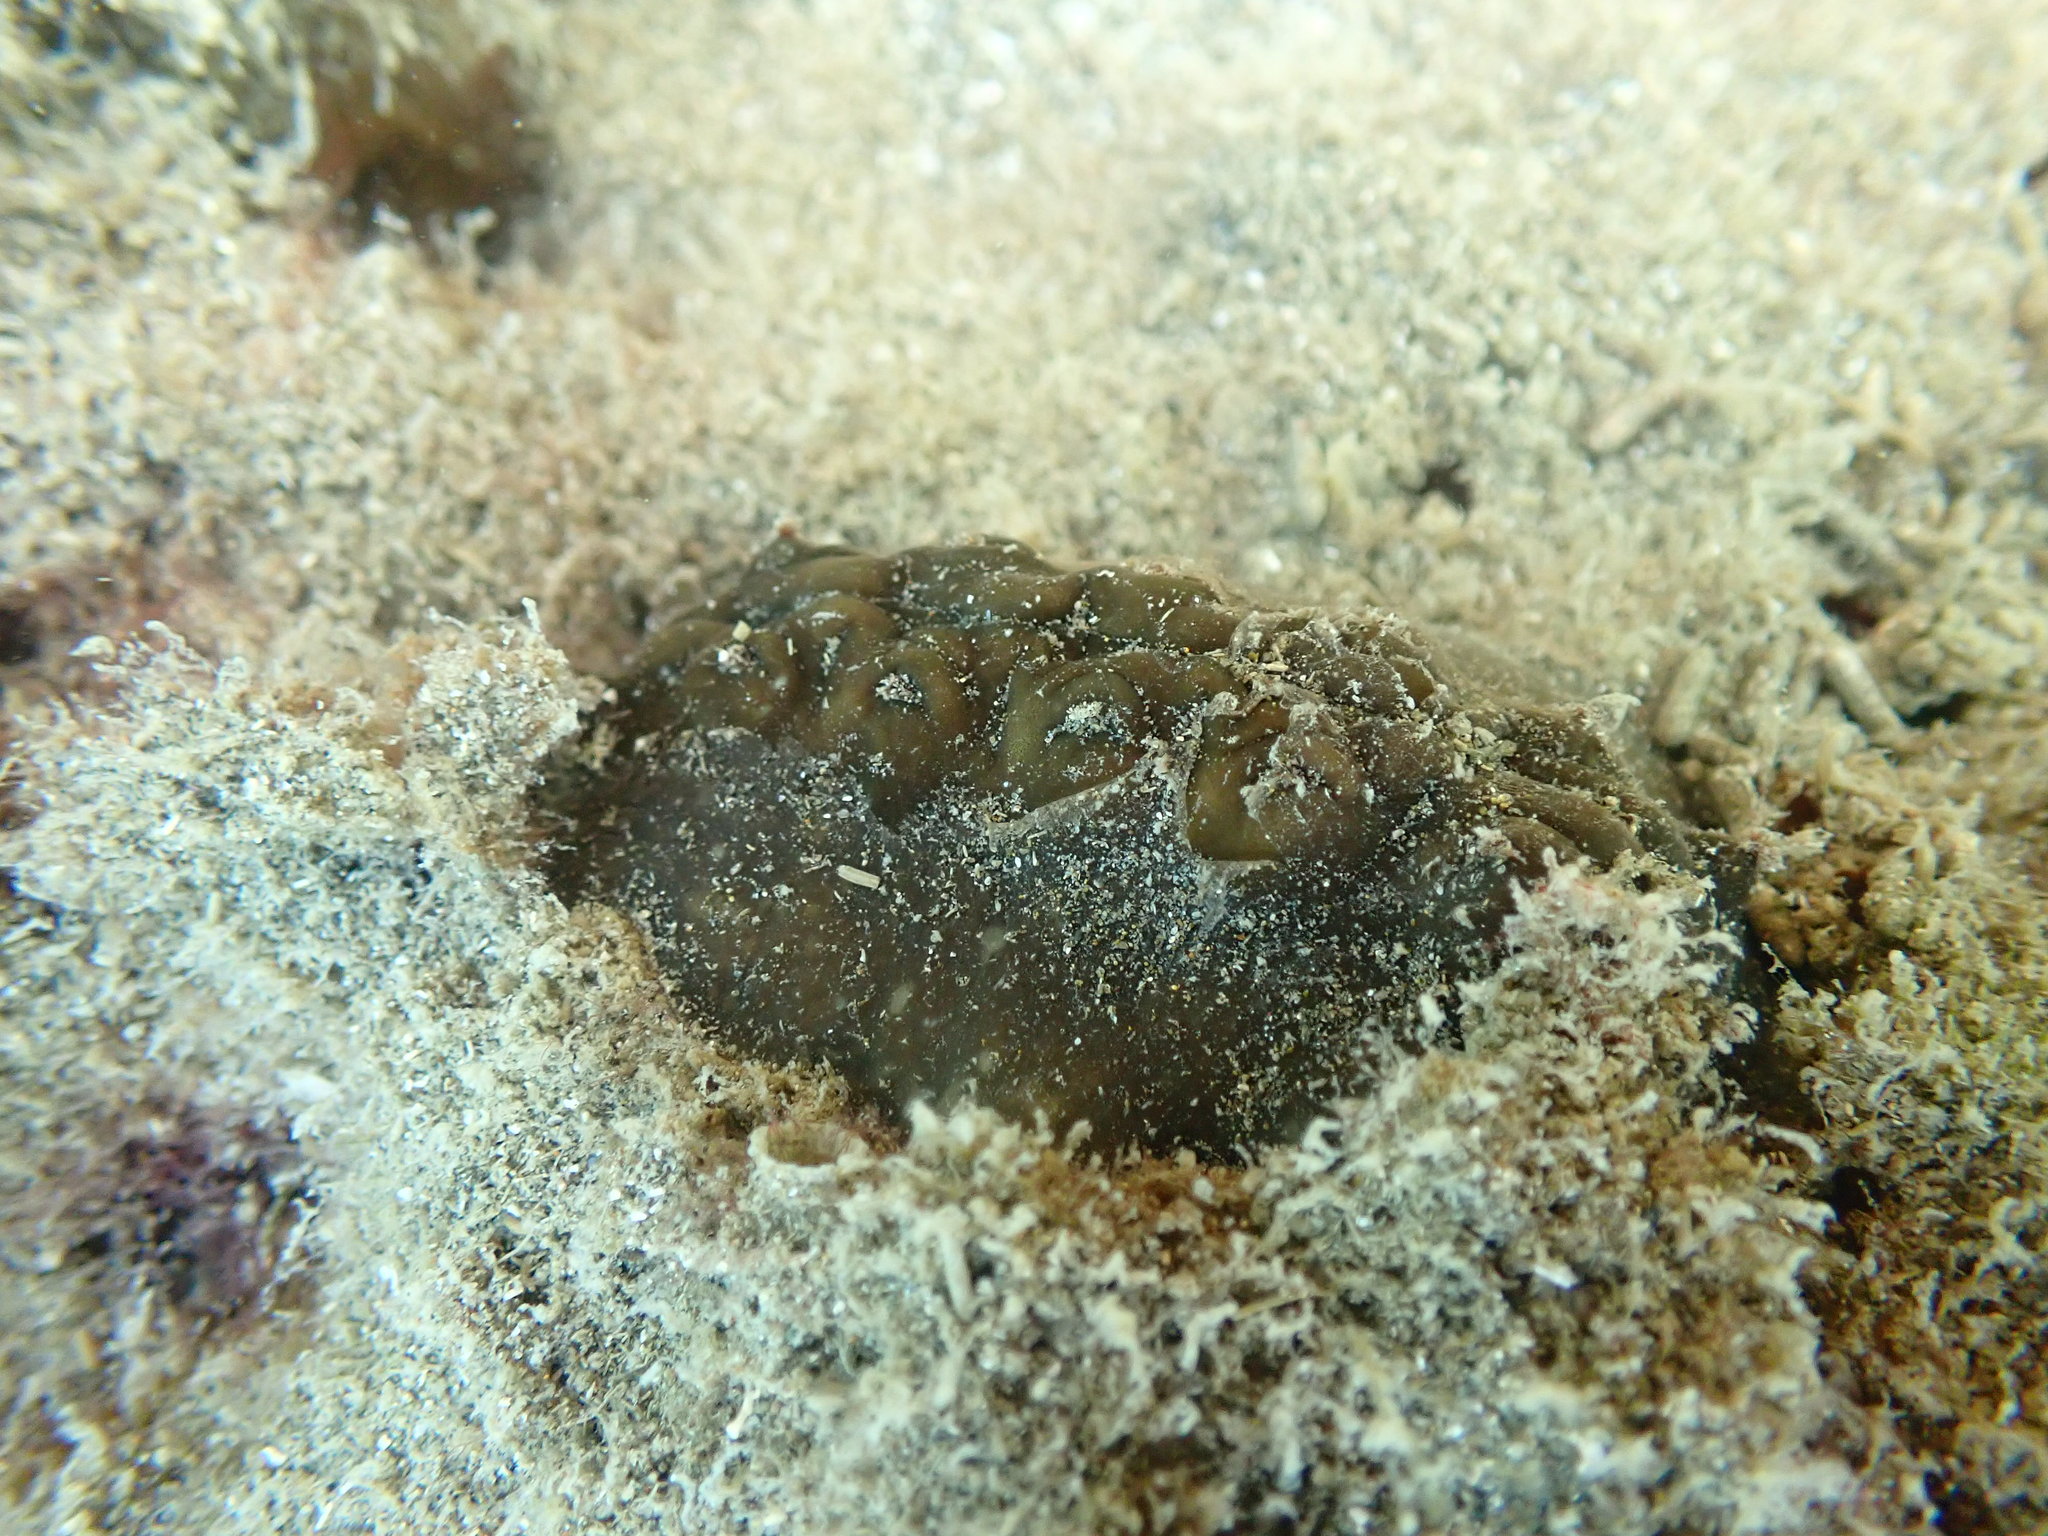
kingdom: Animalia
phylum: Mollusca
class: Polyplacophora
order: Chitonida
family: Acanthochitonidae
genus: Cryptoconchus
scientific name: Cryptoconchus porosus
